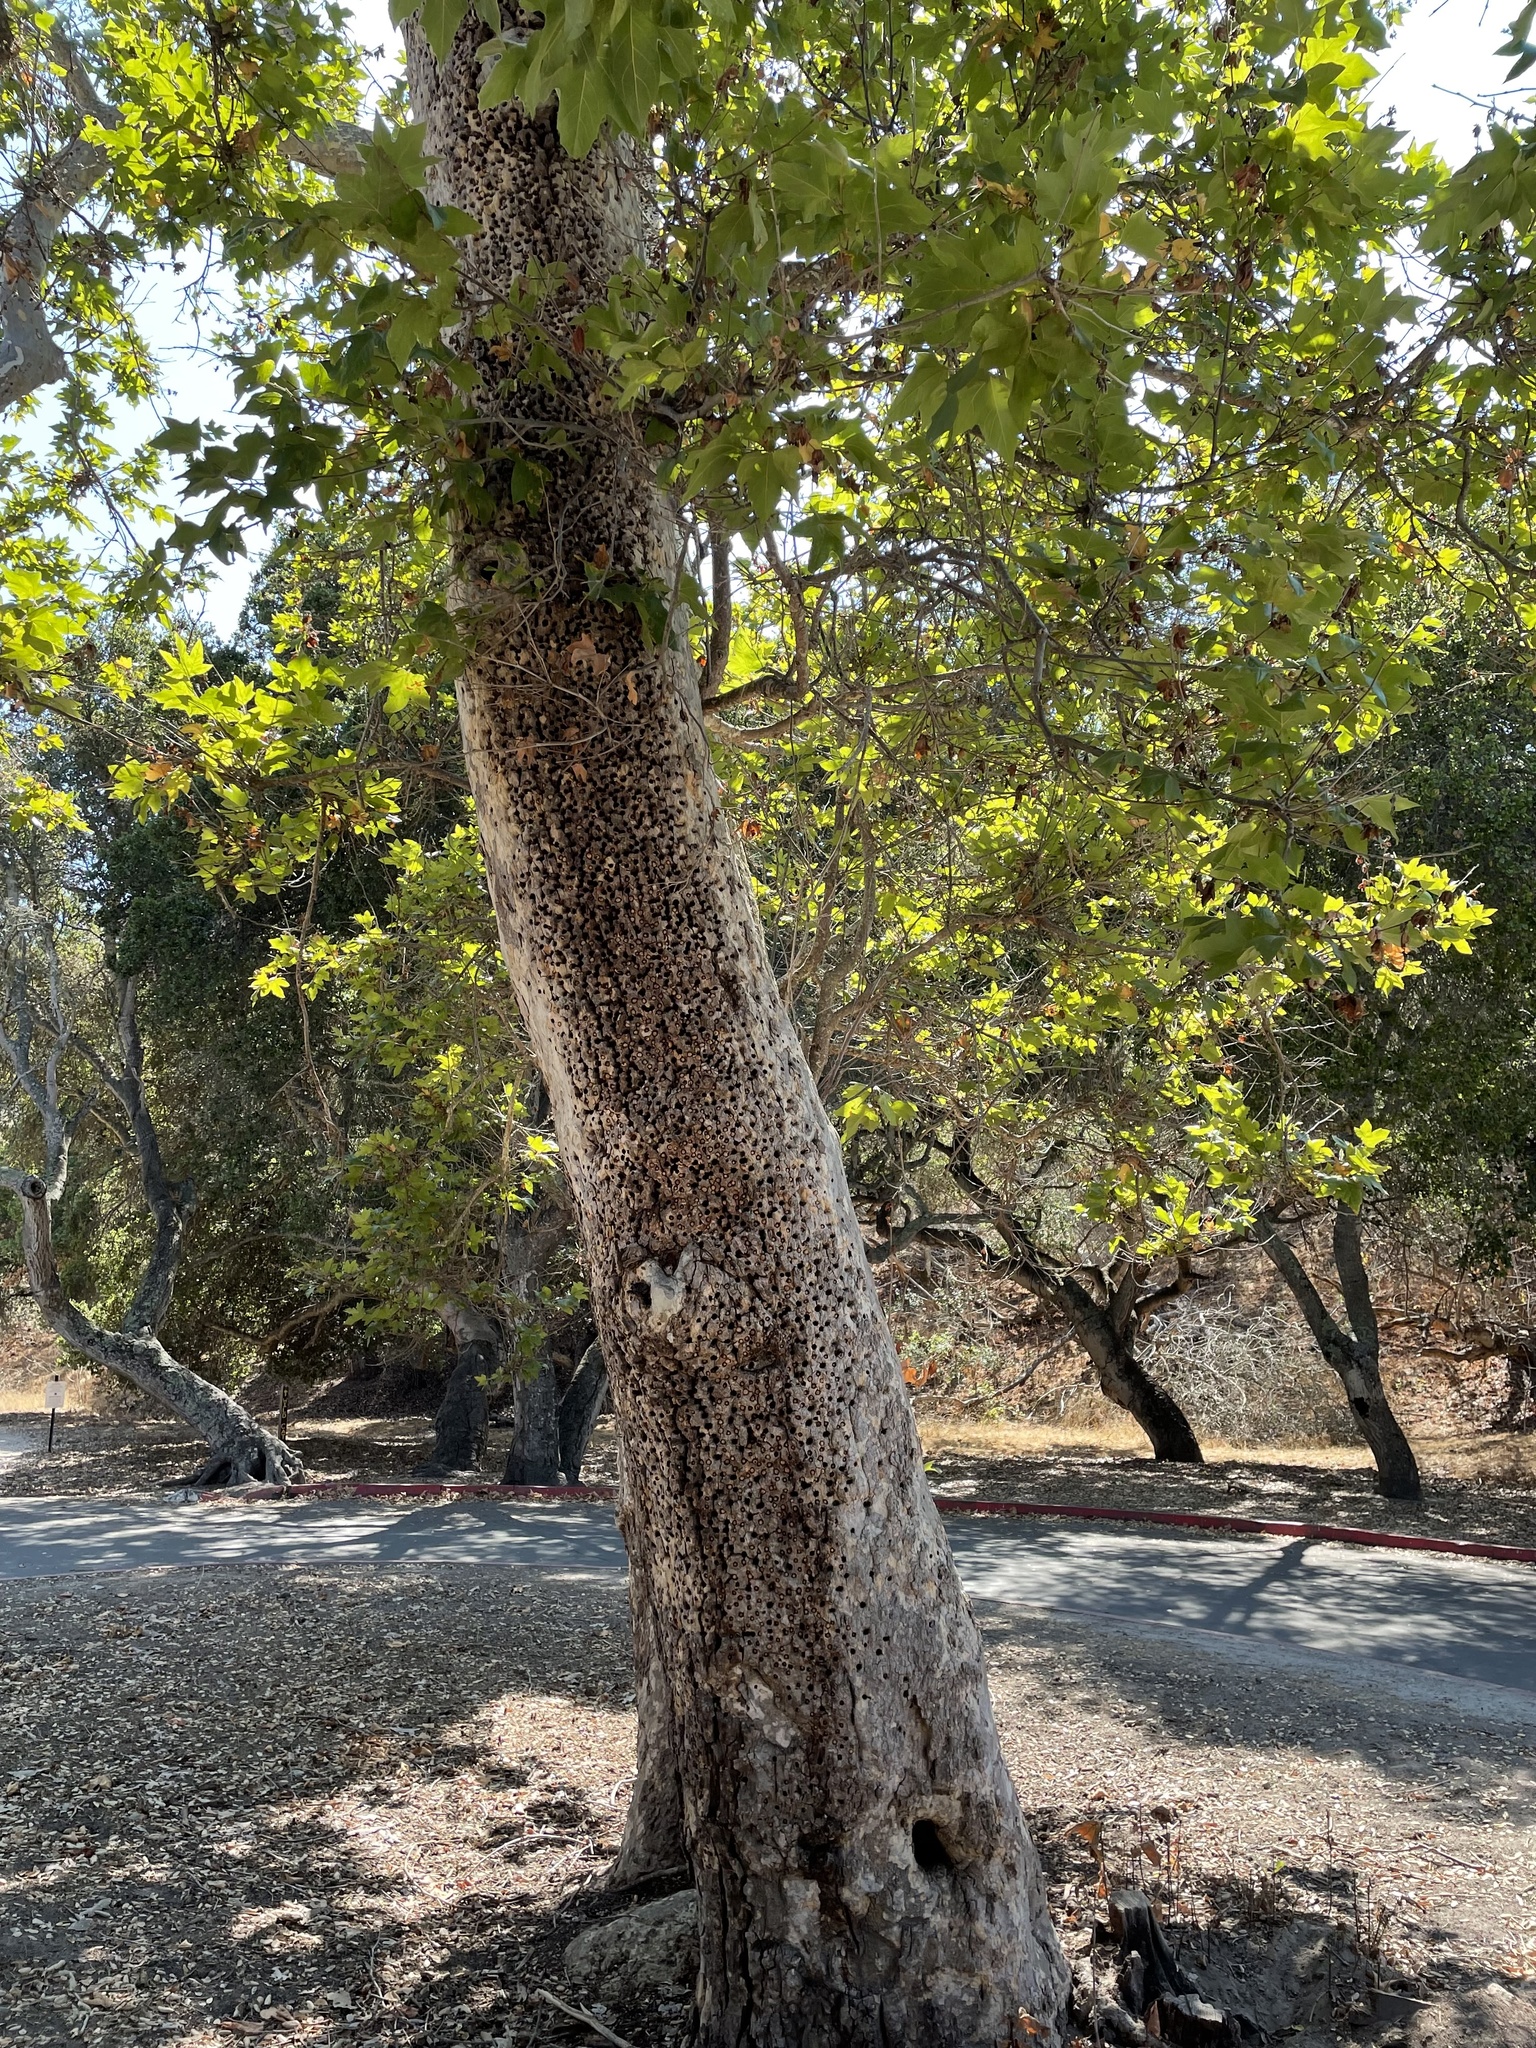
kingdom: Plantae
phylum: Tracheophyta
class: Magnoliopsida
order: Proteales
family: Platanaceae
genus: Platanus
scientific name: Platanus racemosa
